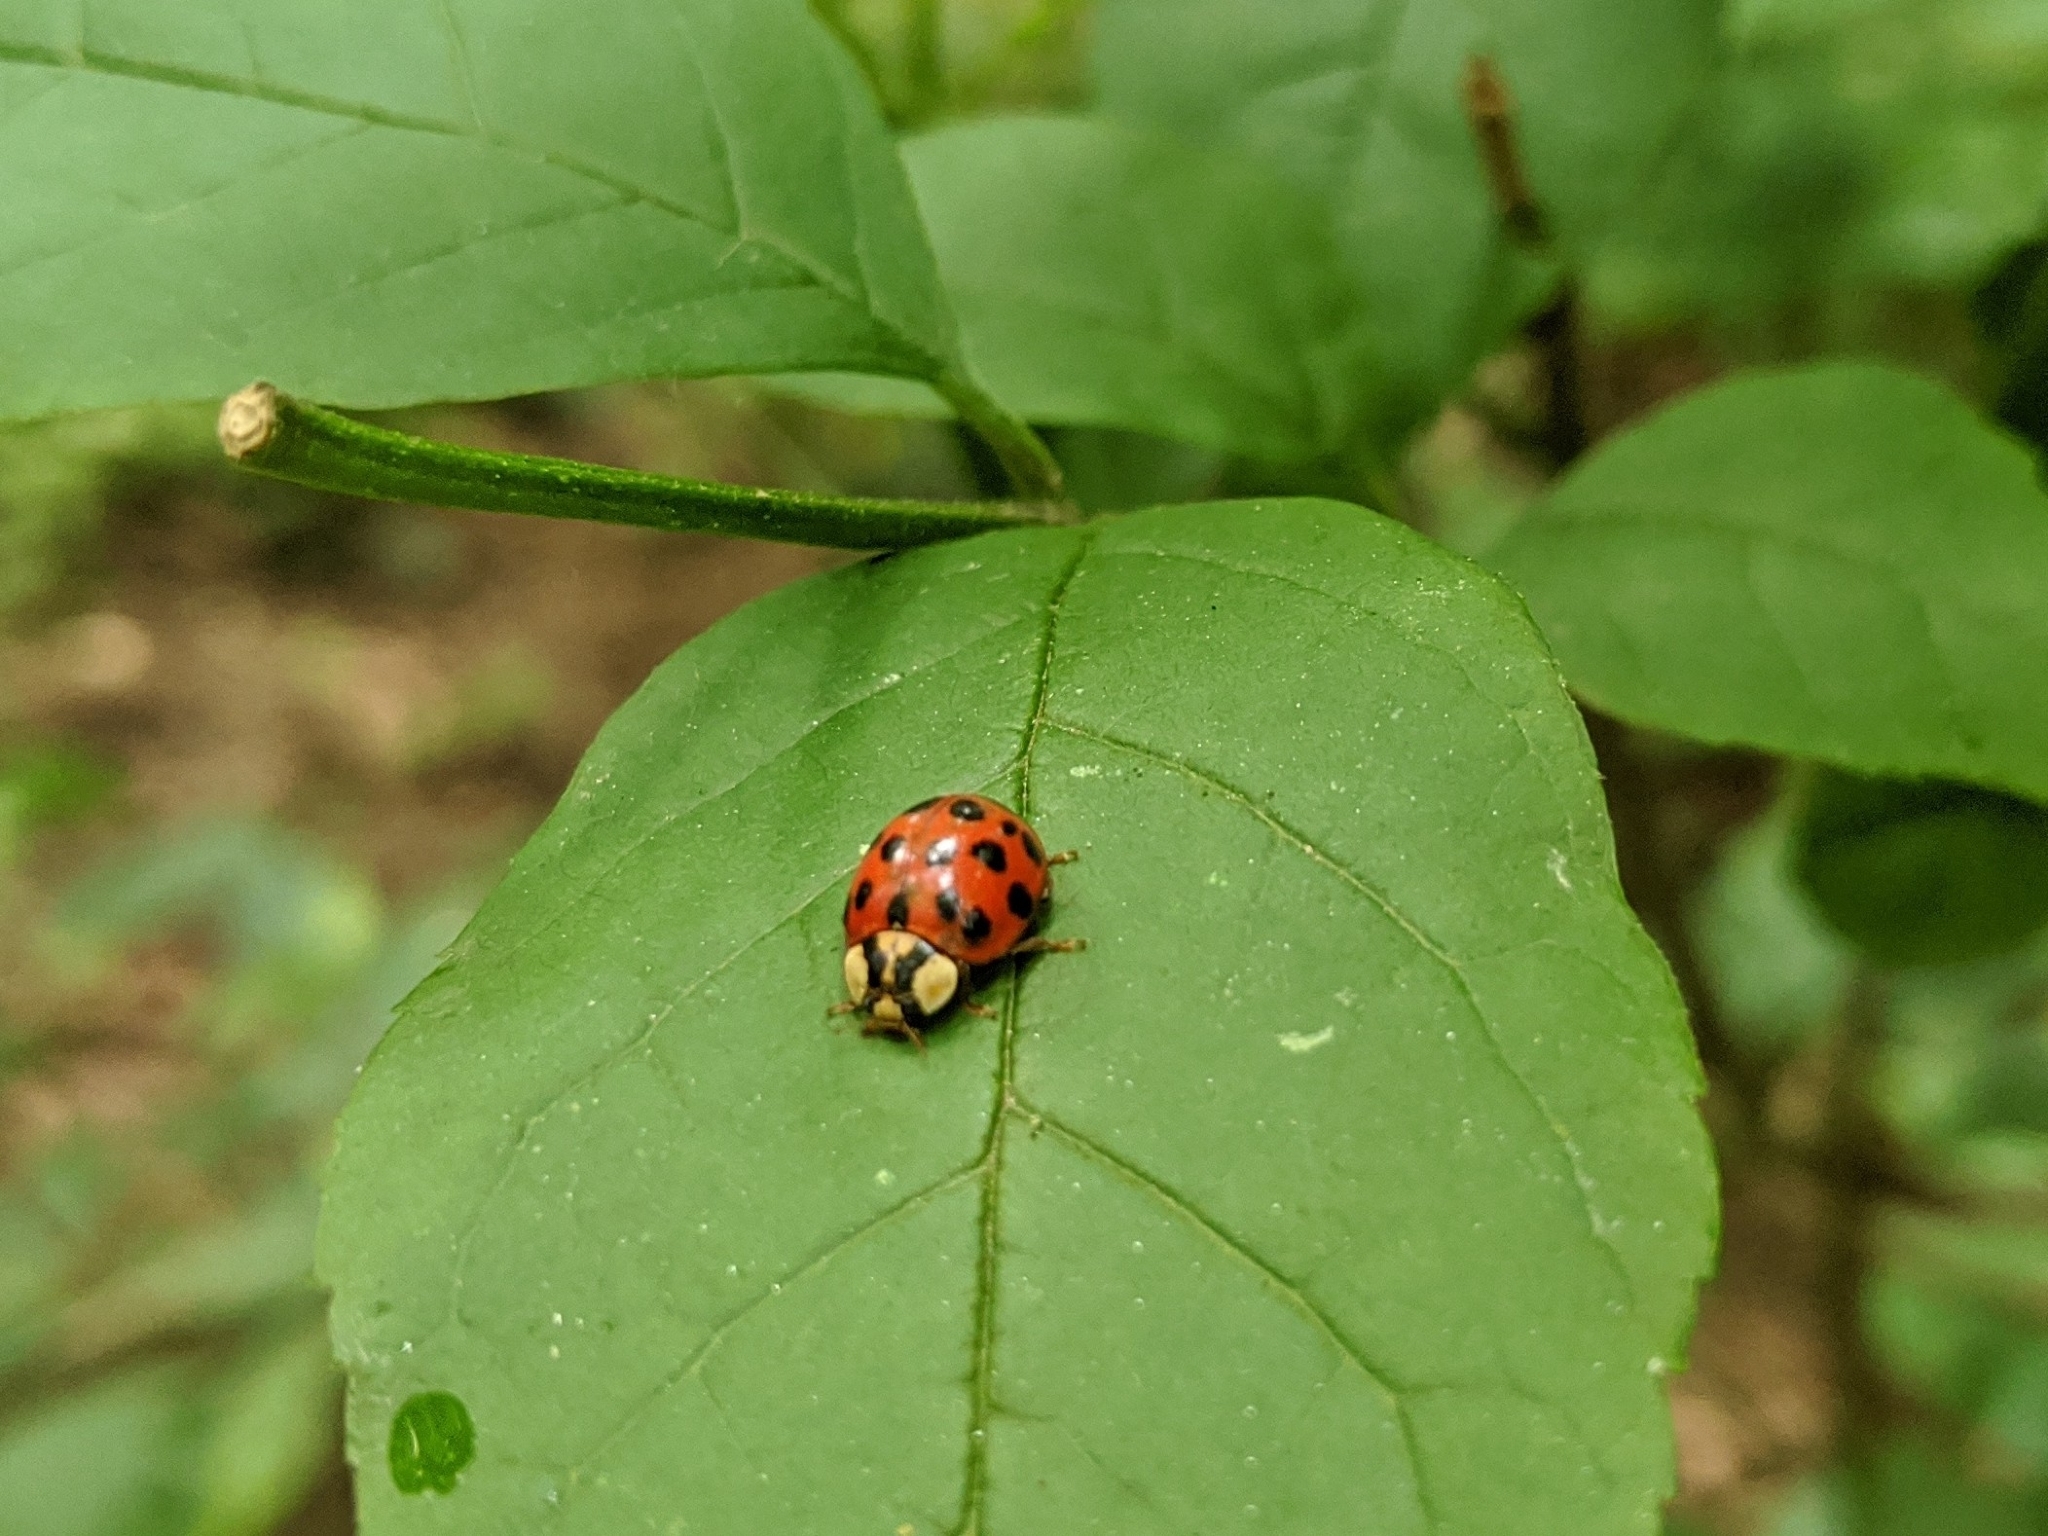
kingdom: Animalia
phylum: Arthropoda
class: Insecta
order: Coleoptera
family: Coccinellidae
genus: Harmonia
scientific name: Harmonia axyridis
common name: Harlequin ladybird
